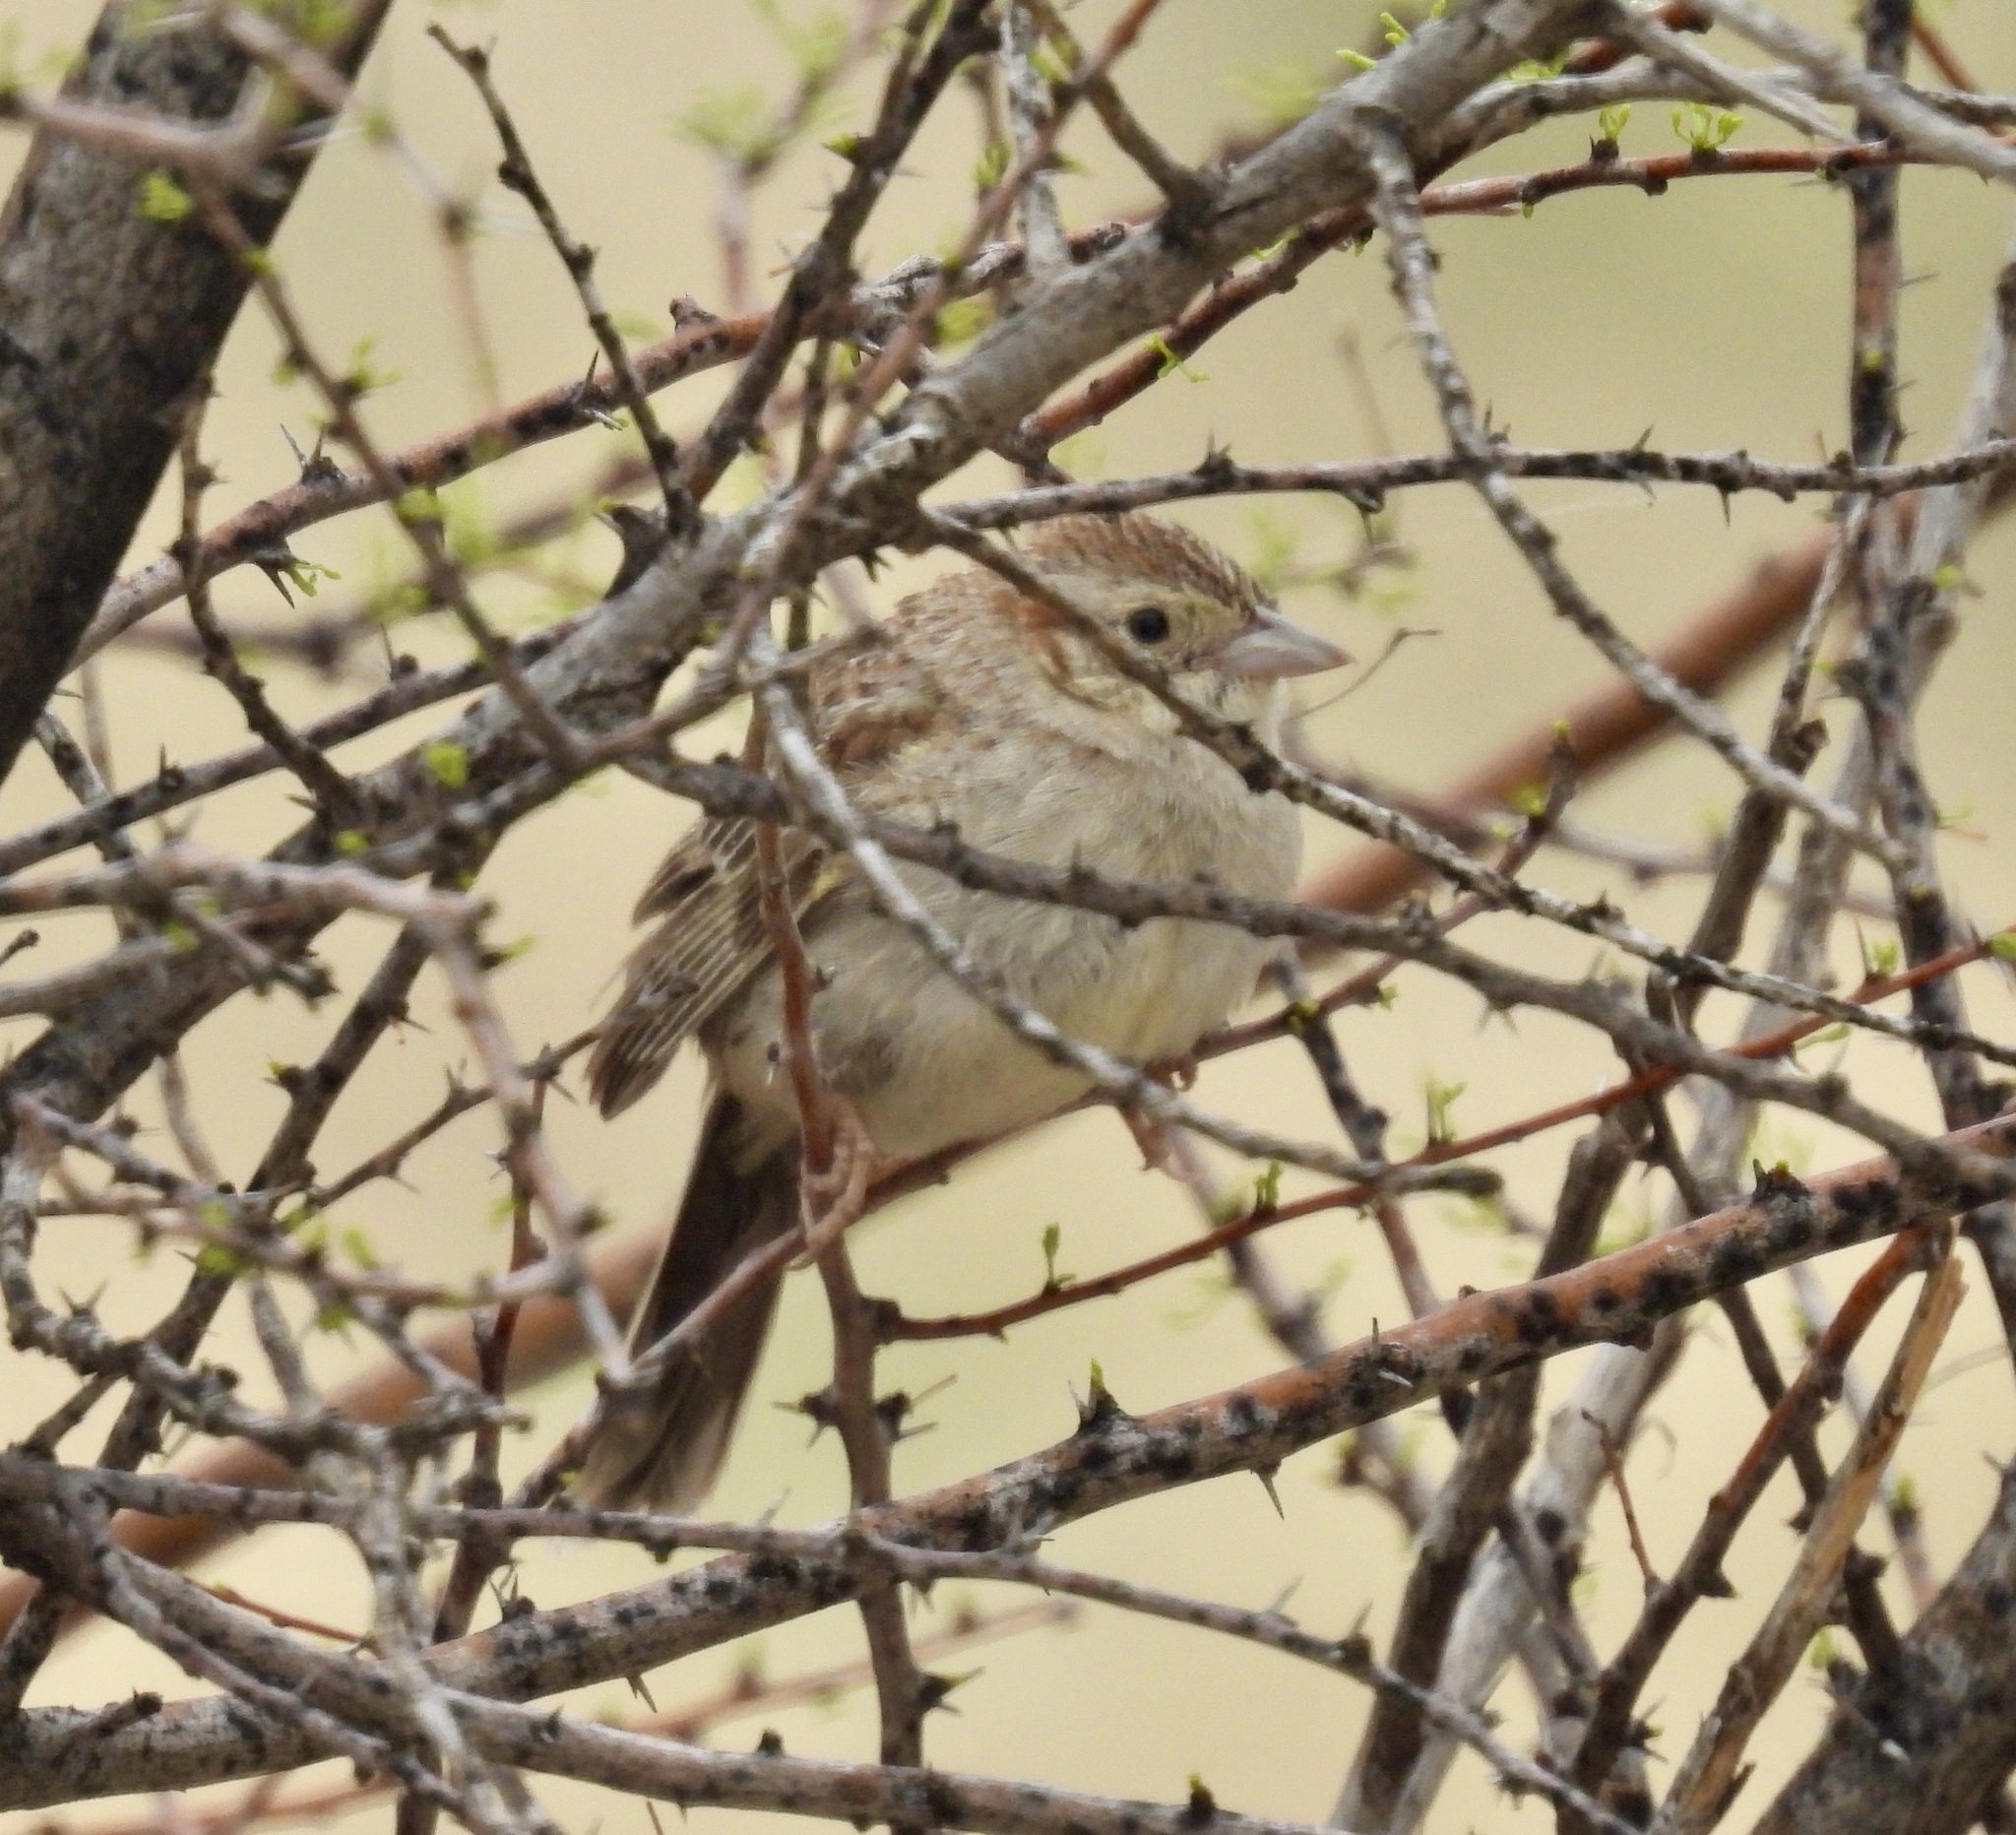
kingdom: Animalia
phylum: Chordata
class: Aves
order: Passeriformes
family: Passerellidae
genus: Peucaea
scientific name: Peucaea cassinii
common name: Cassin's sparrow
